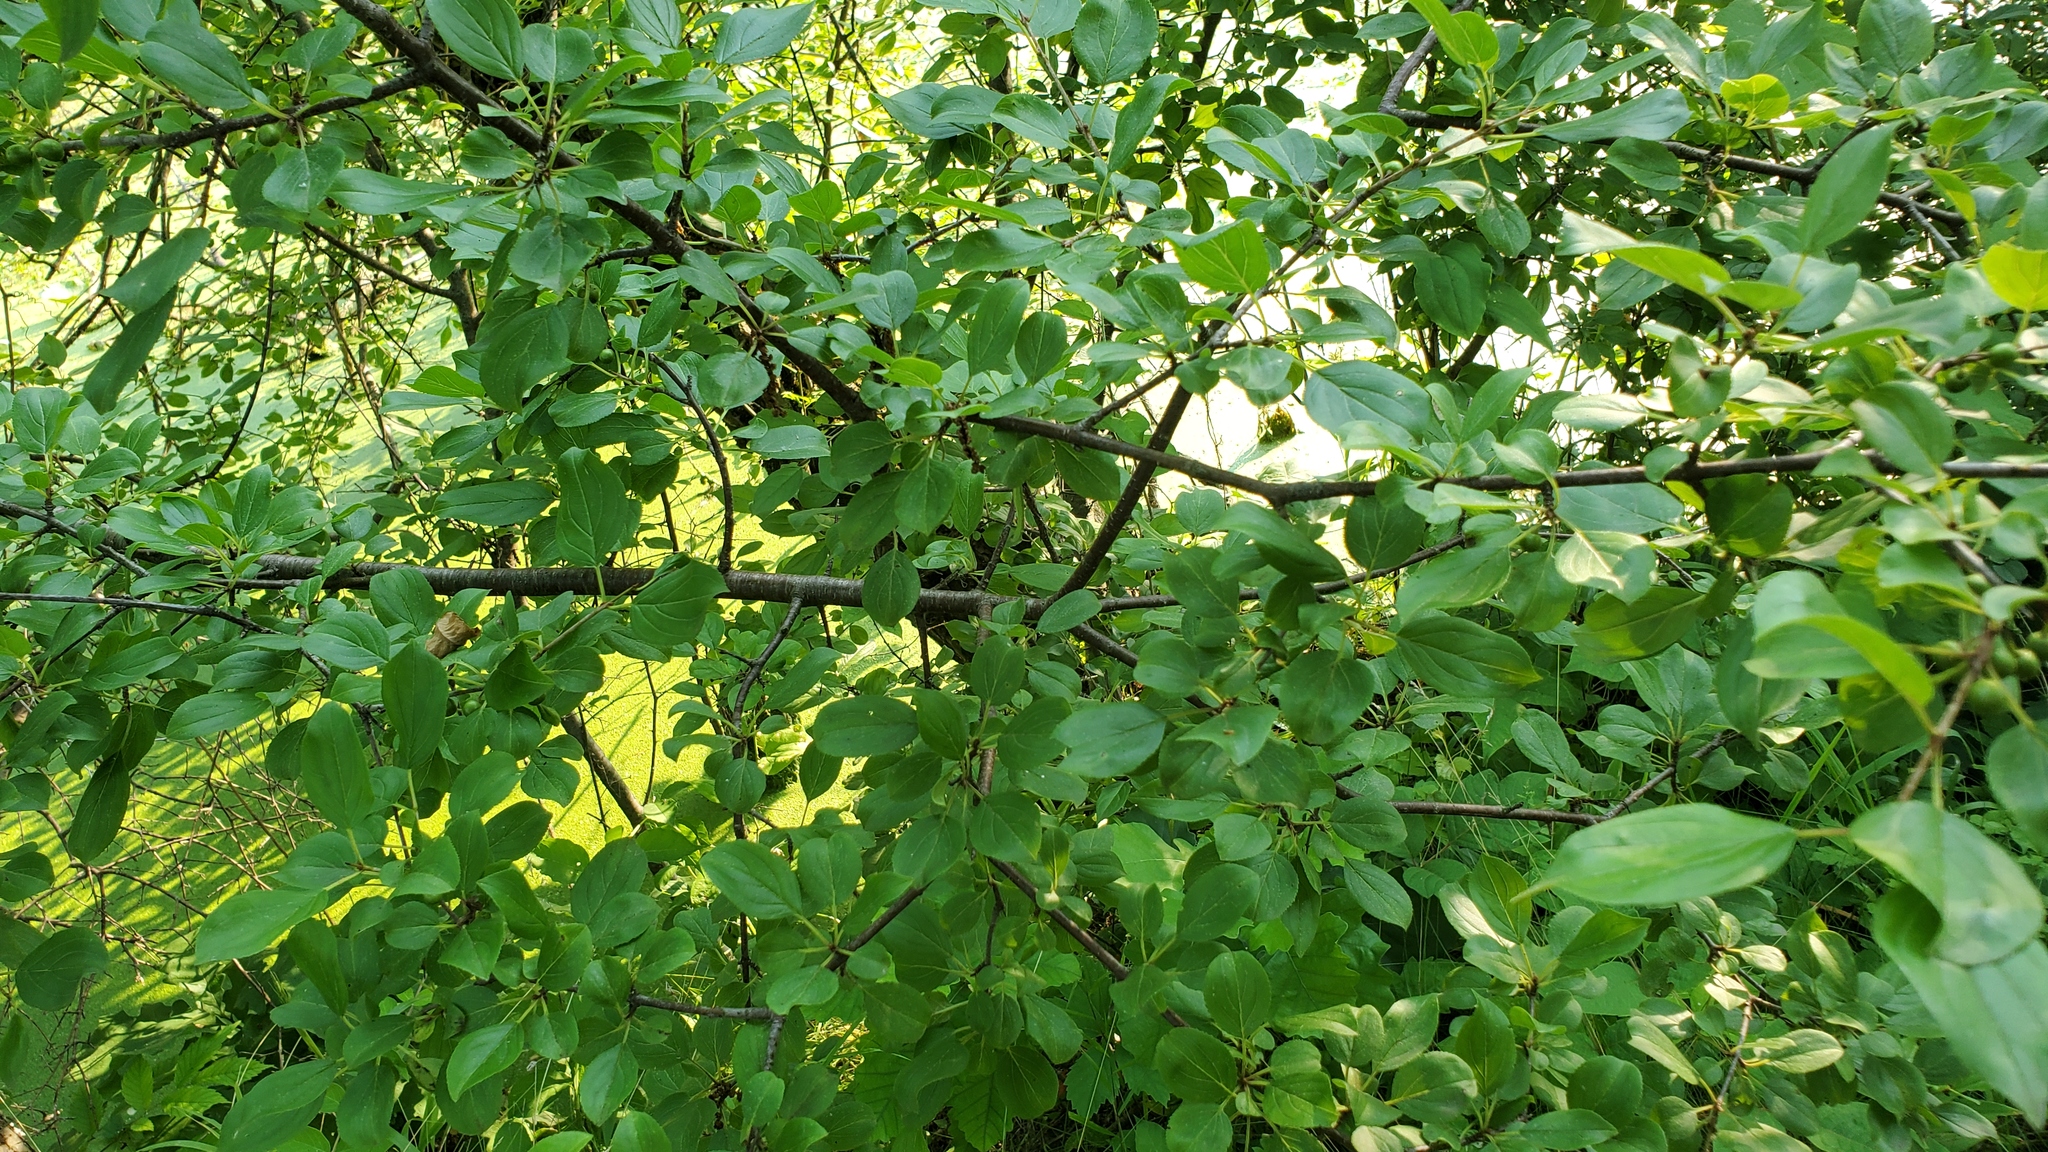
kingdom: Plantae
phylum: Tracheophyta
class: Magnoliopsida
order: Rosales
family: Rhamnaceae
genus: Rhamnus
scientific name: Rhamnus cathartica
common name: Common buckthorn
